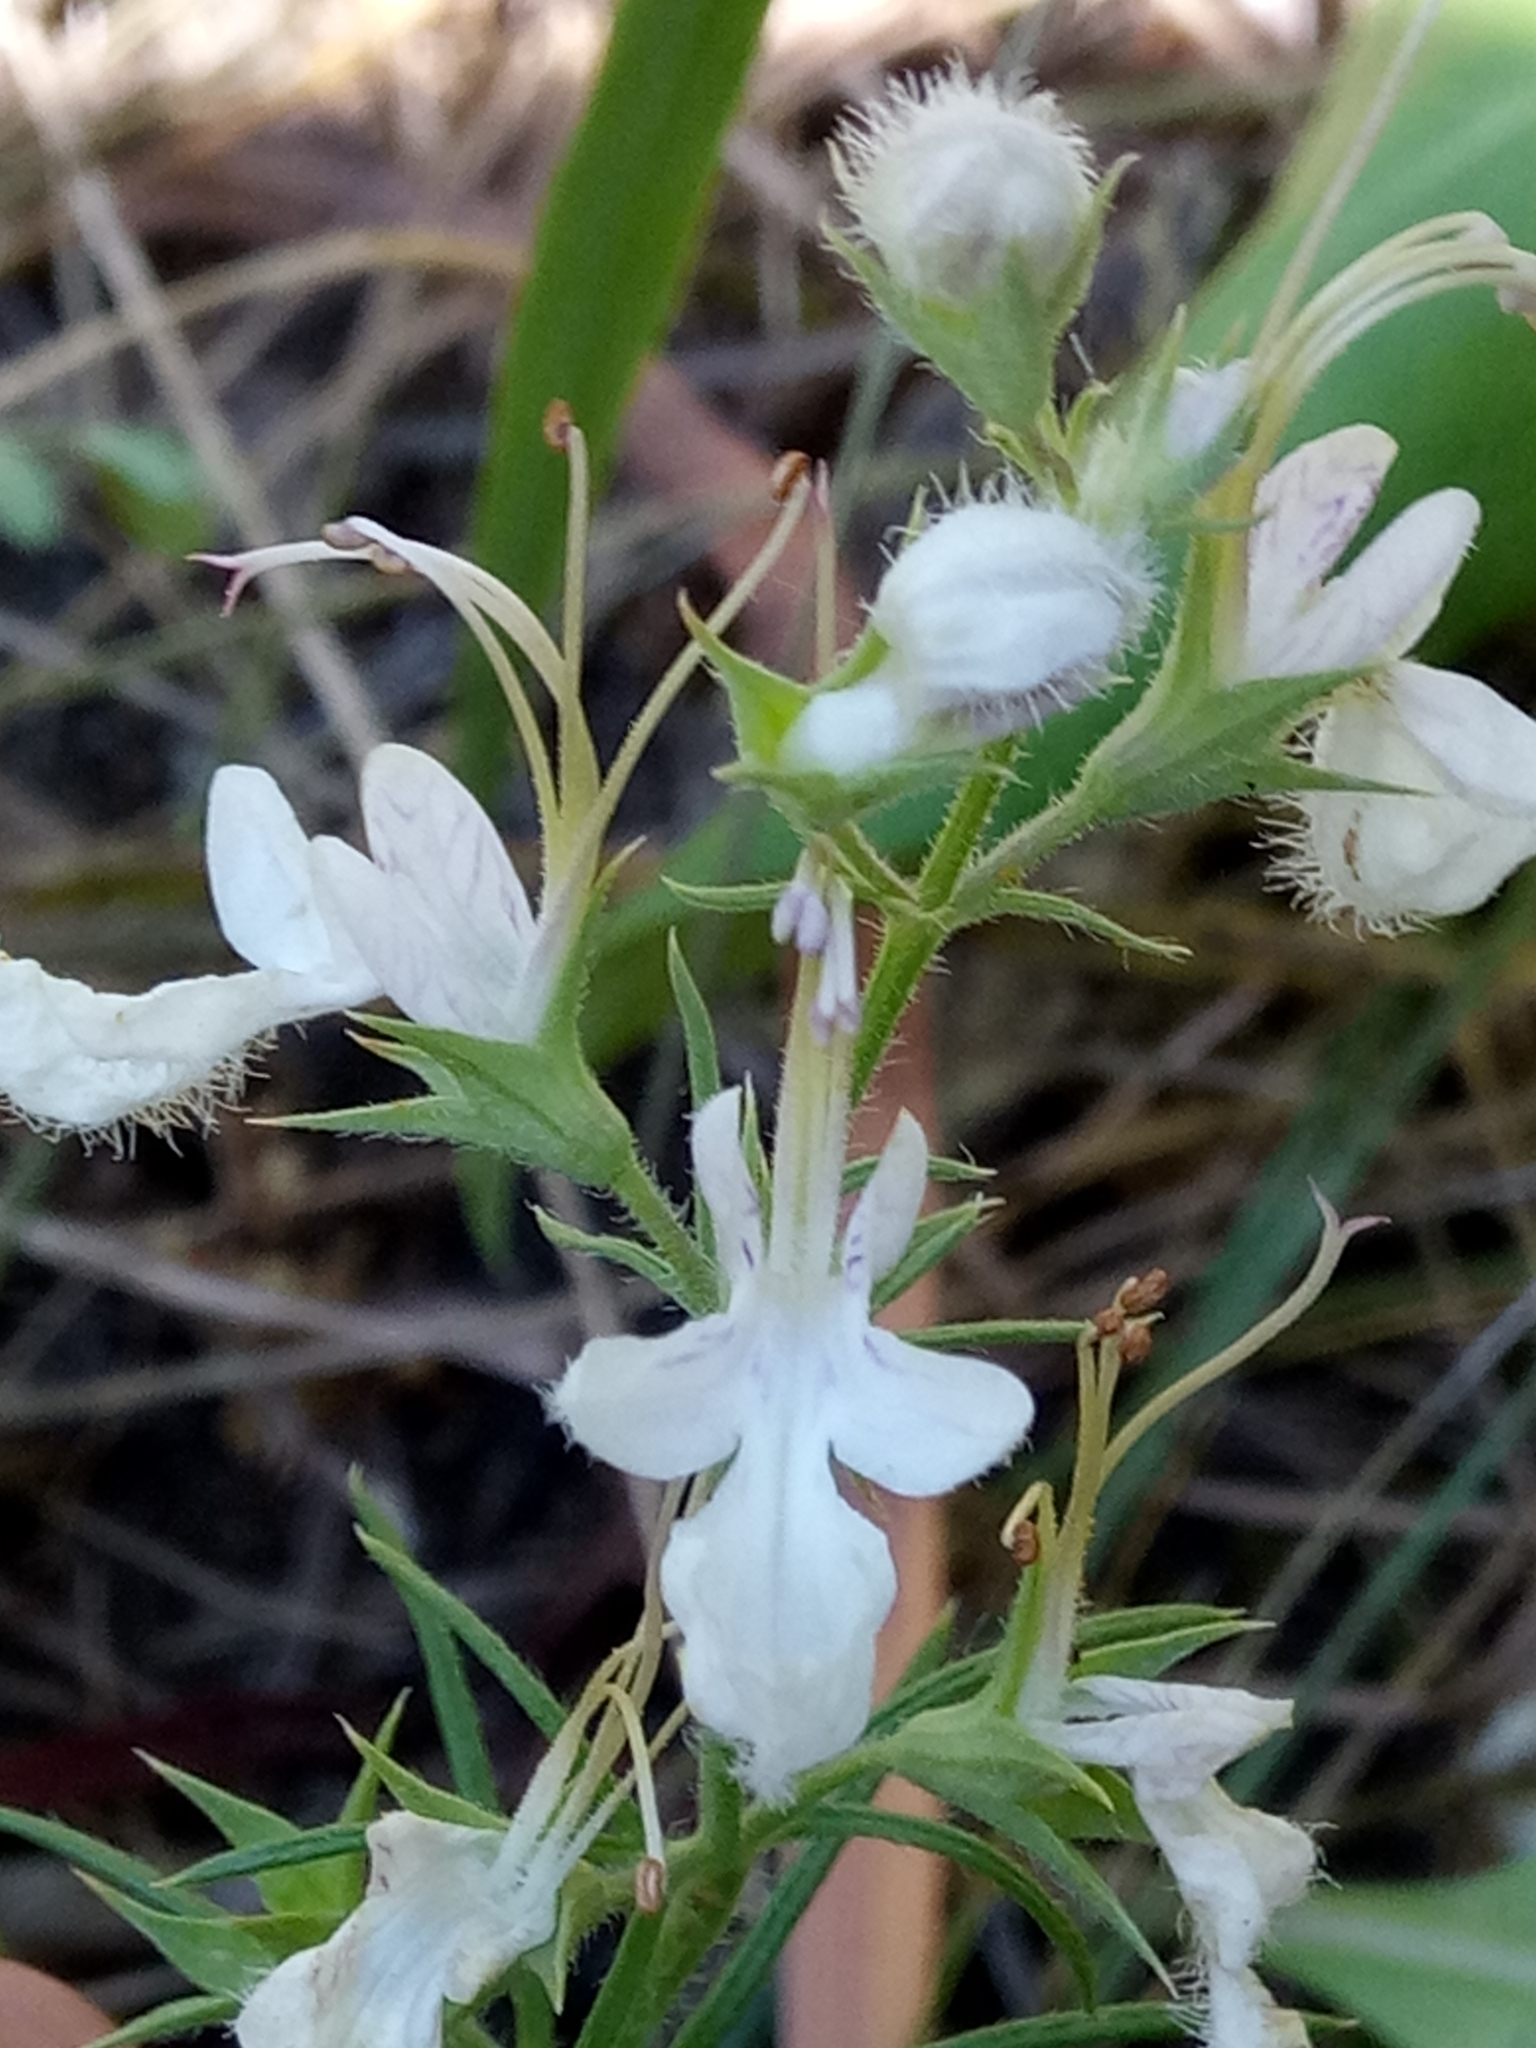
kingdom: Plantae
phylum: Tracheophyta
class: Magnoliopsida
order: Lamiales
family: Lamiaceae
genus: Teucrium
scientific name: Teucrium pseudochamaepitys
